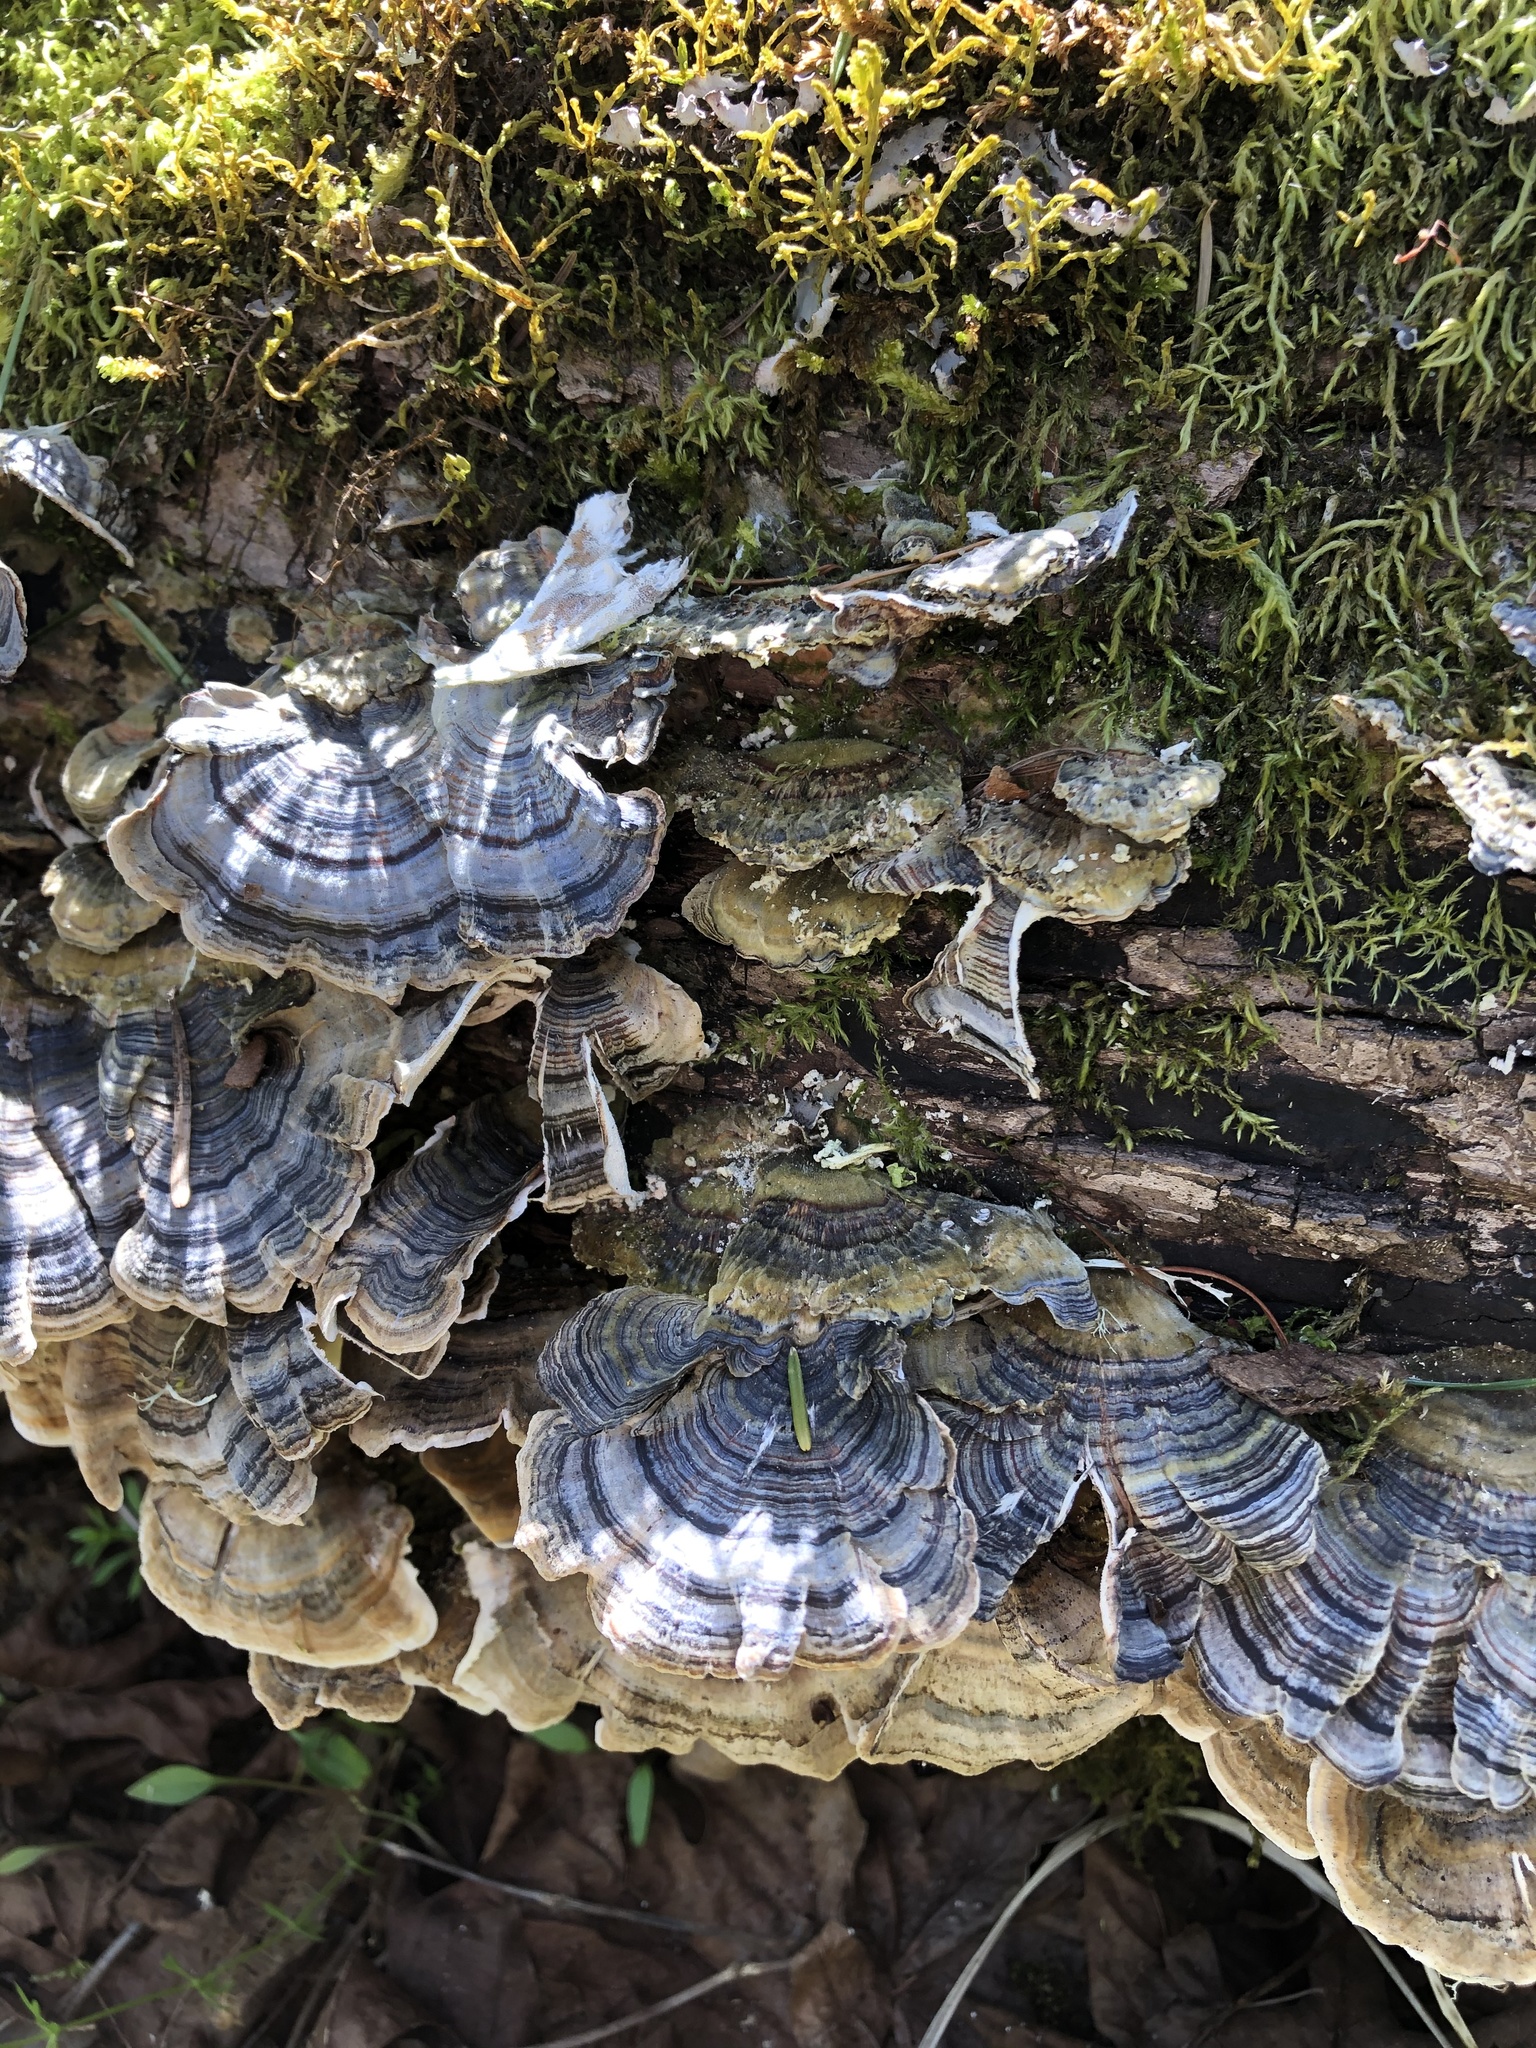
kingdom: Fungi
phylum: Basidiomycota
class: Agaricomycetes
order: Polyporales
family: Polyporaceae
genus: Trametes
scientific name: Trametes versicolor
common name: Turkeytail
